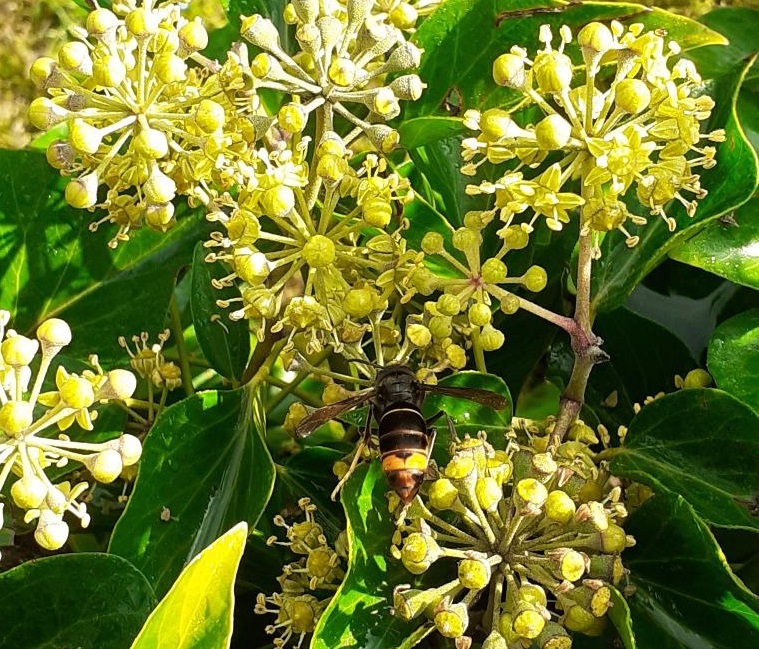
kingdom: Animalia
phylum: Arthropoda
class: Insecta
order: Hymenoptera
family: Vespidae
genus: Vespa
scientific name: Vespa velutina
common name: Asian hornet
